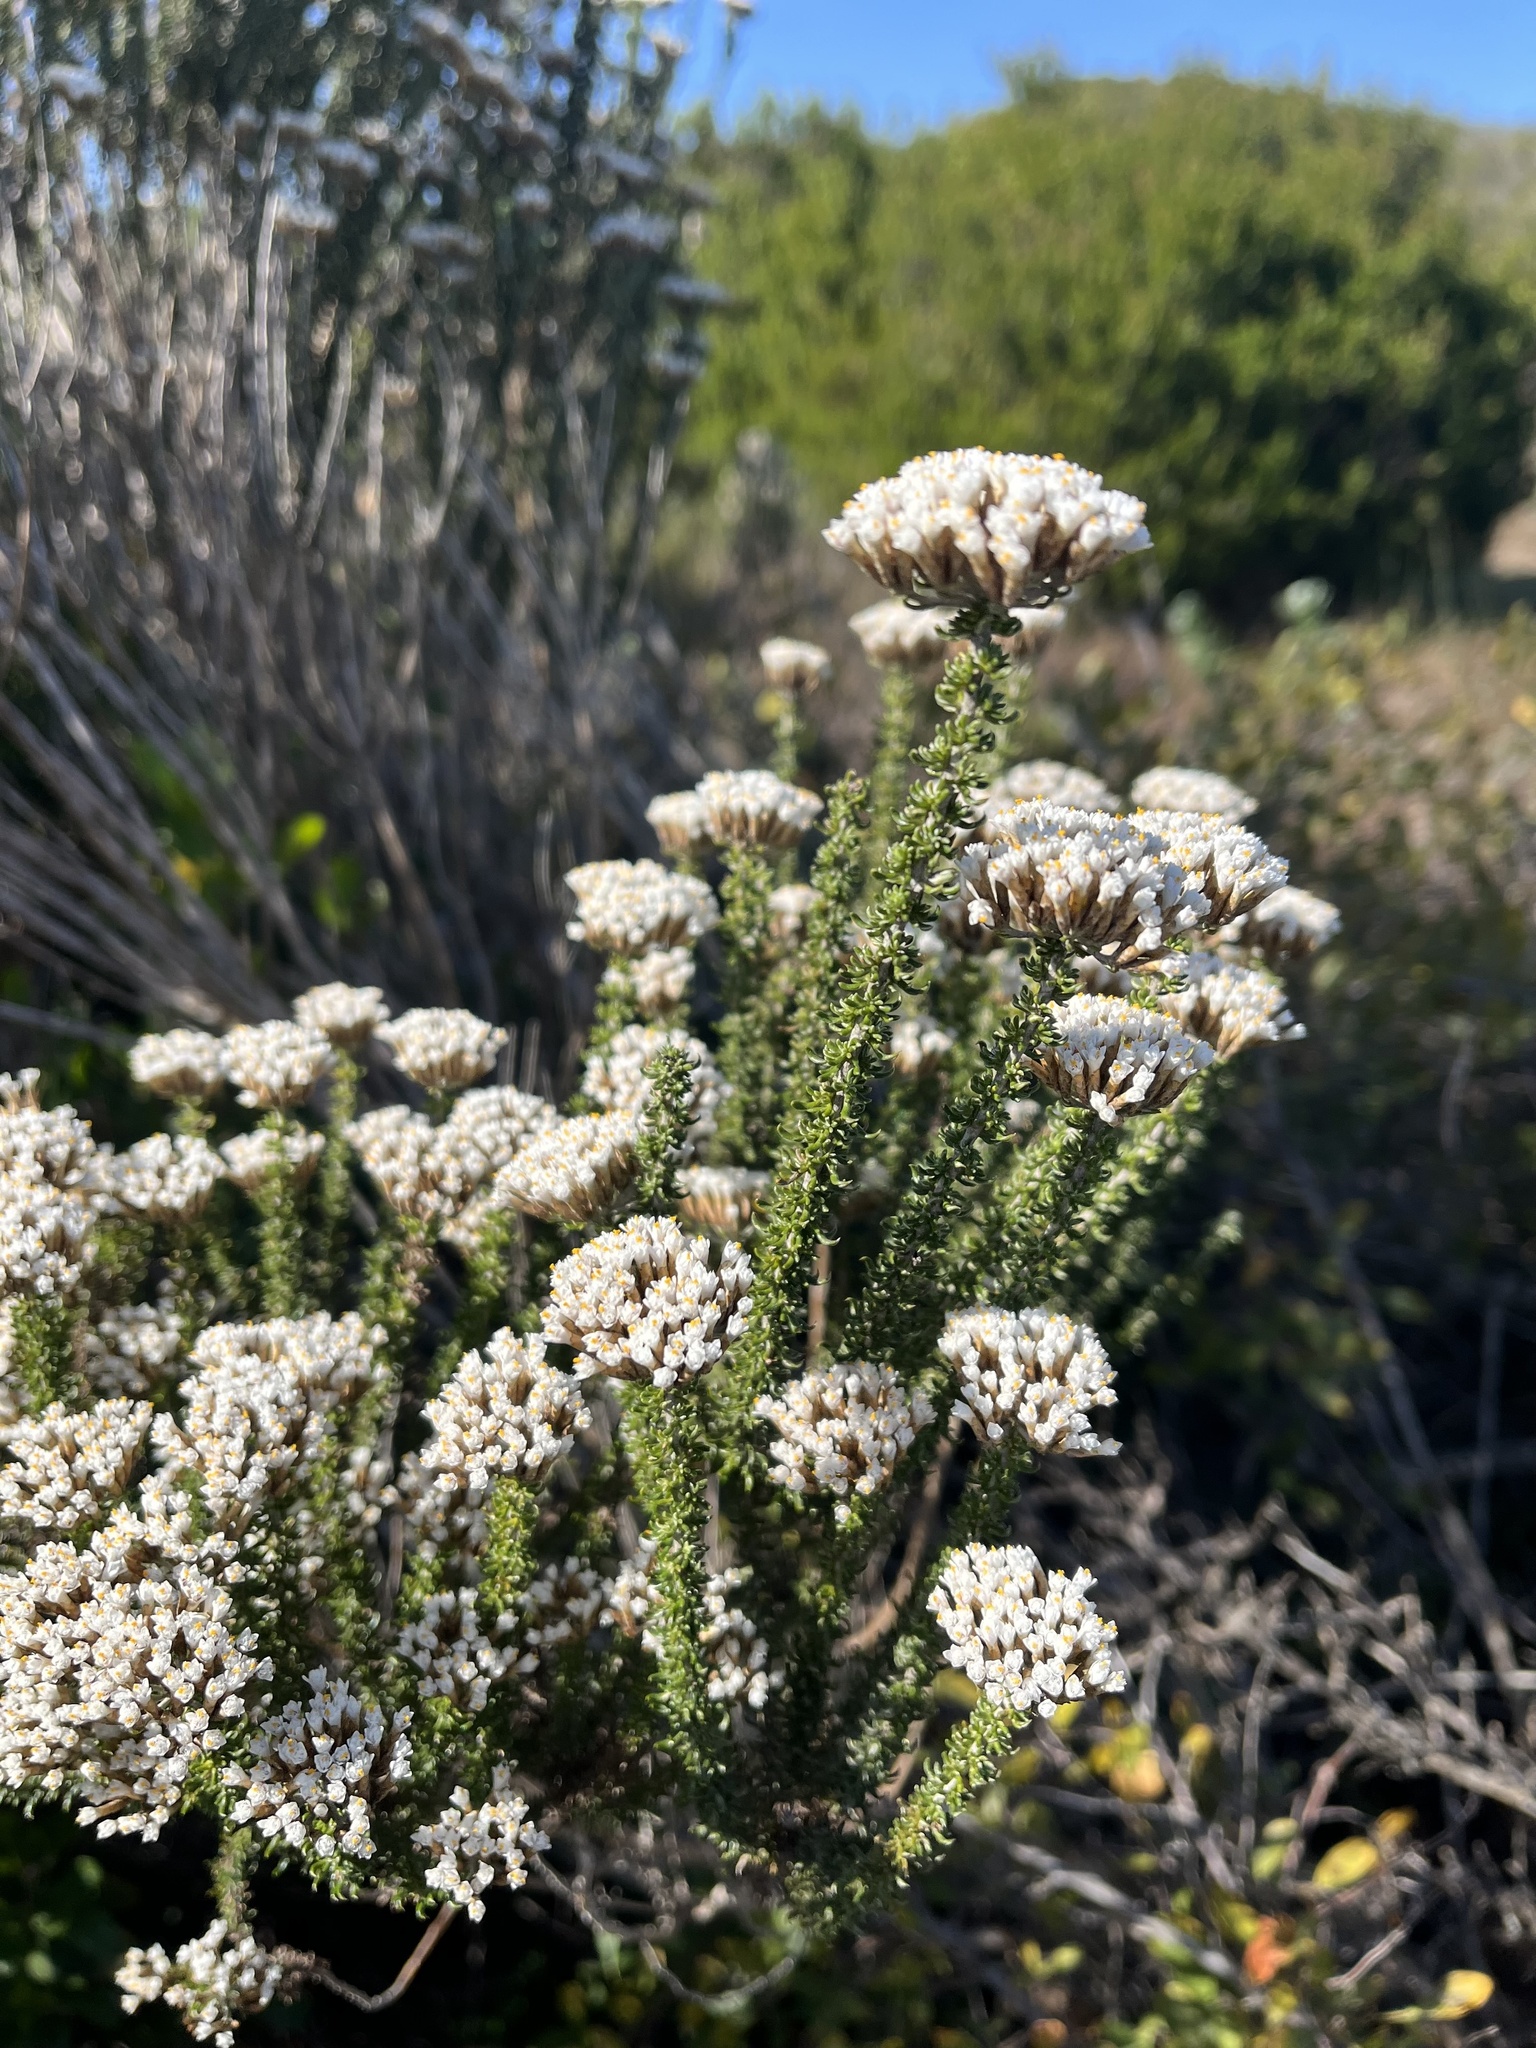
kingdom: Plantae
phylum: Tracheophyta
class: Magnoliopsida
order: Asterales
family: Asteraceae
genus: Metalasia
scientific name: Metalasia muricata
